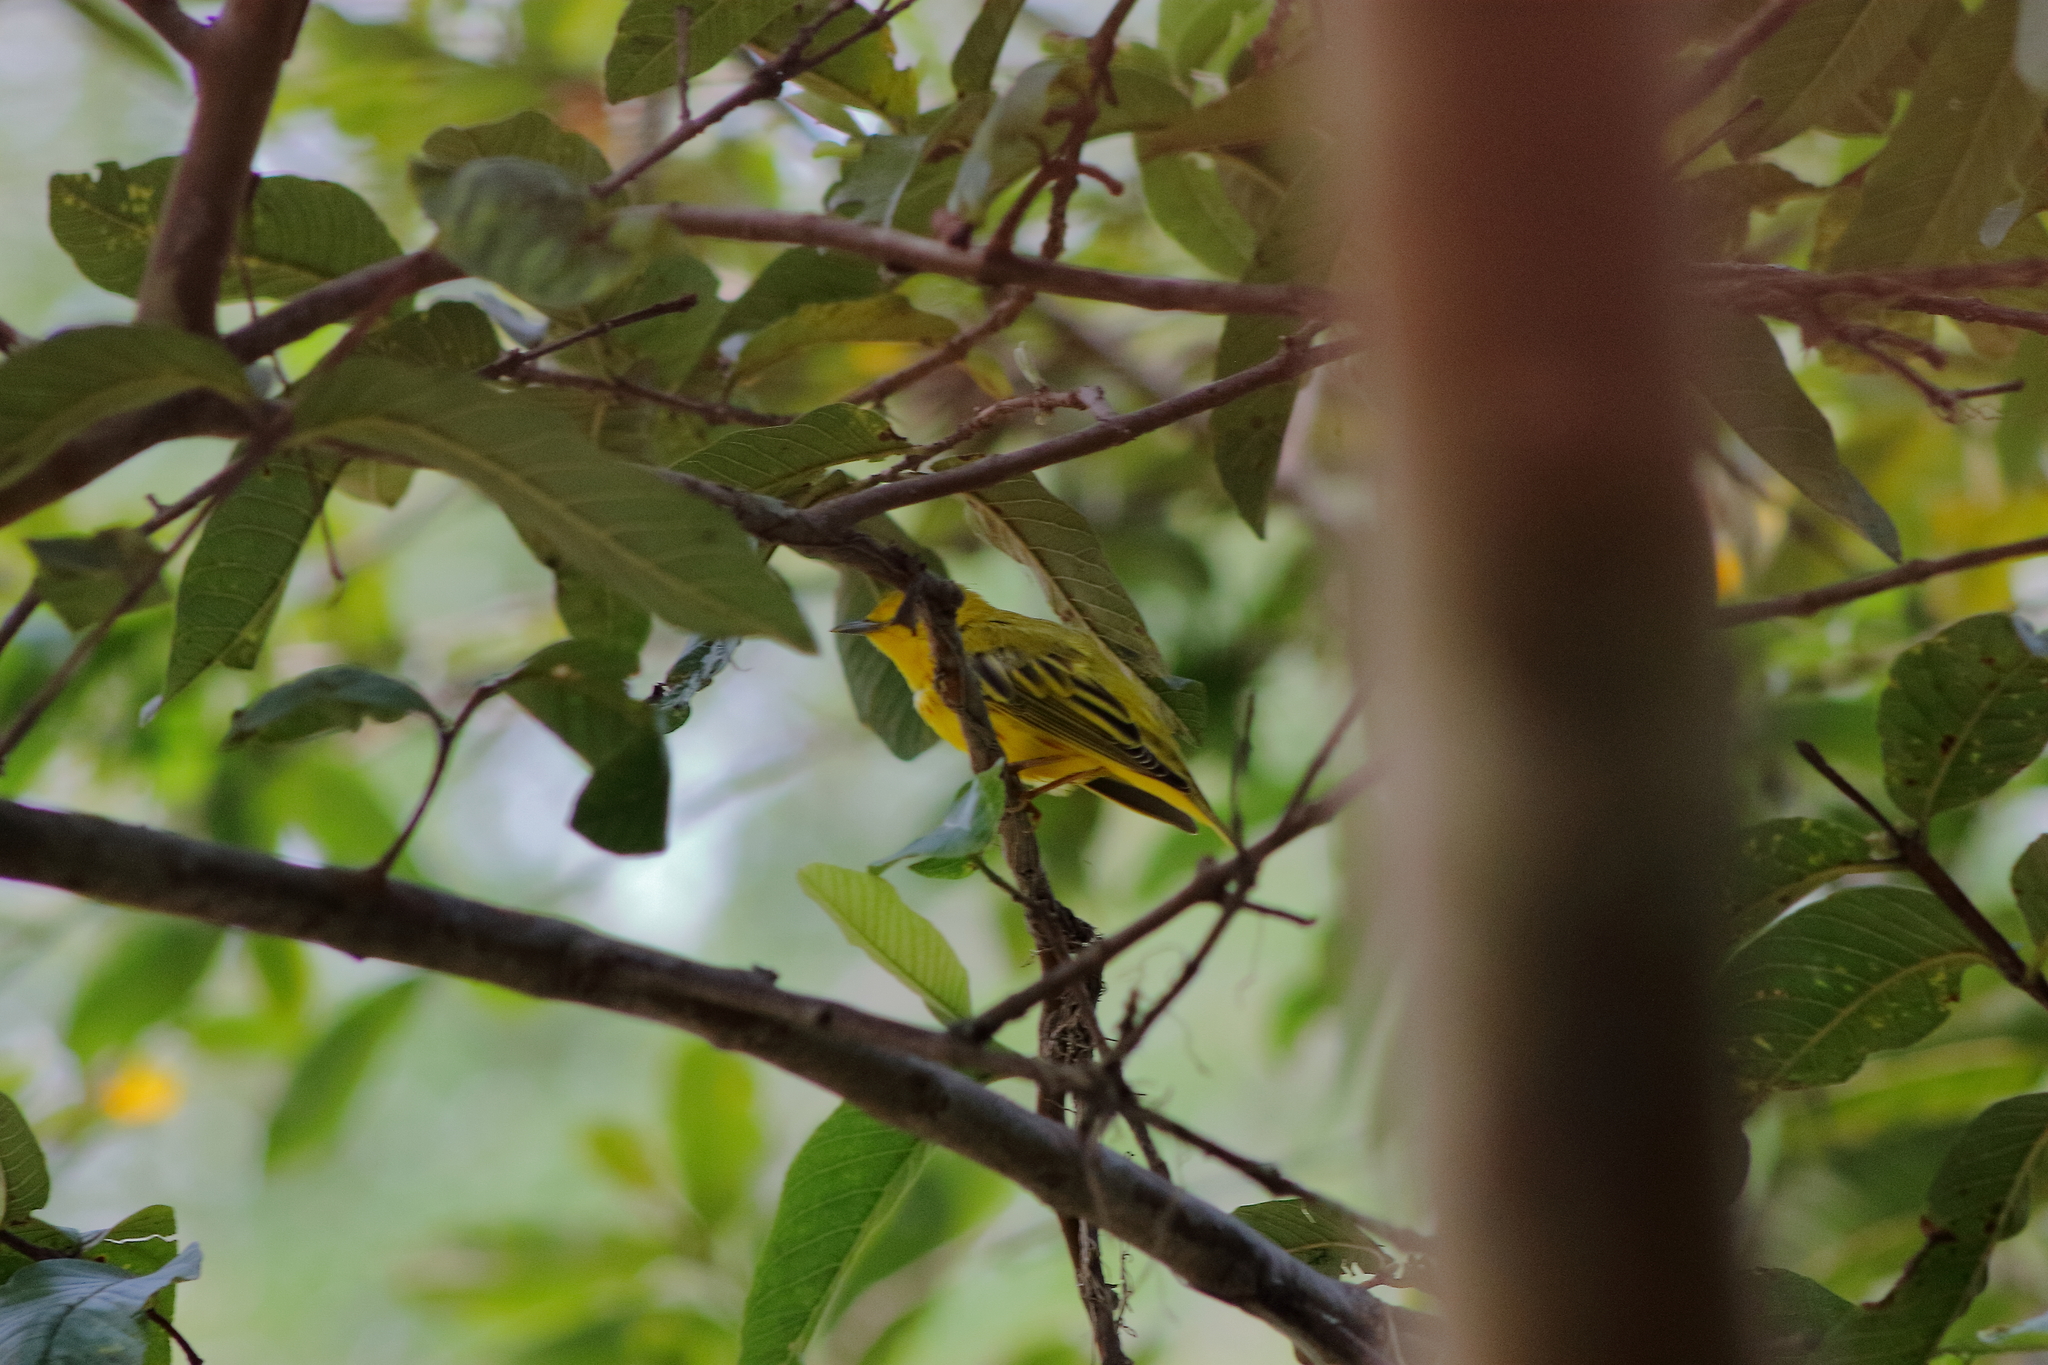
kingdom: Animalia
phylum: Chordata
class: Aves
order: Passeriformes
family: Parulidae
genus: Setophaga
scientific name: Setophaga petechia
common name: Yellow warbler
